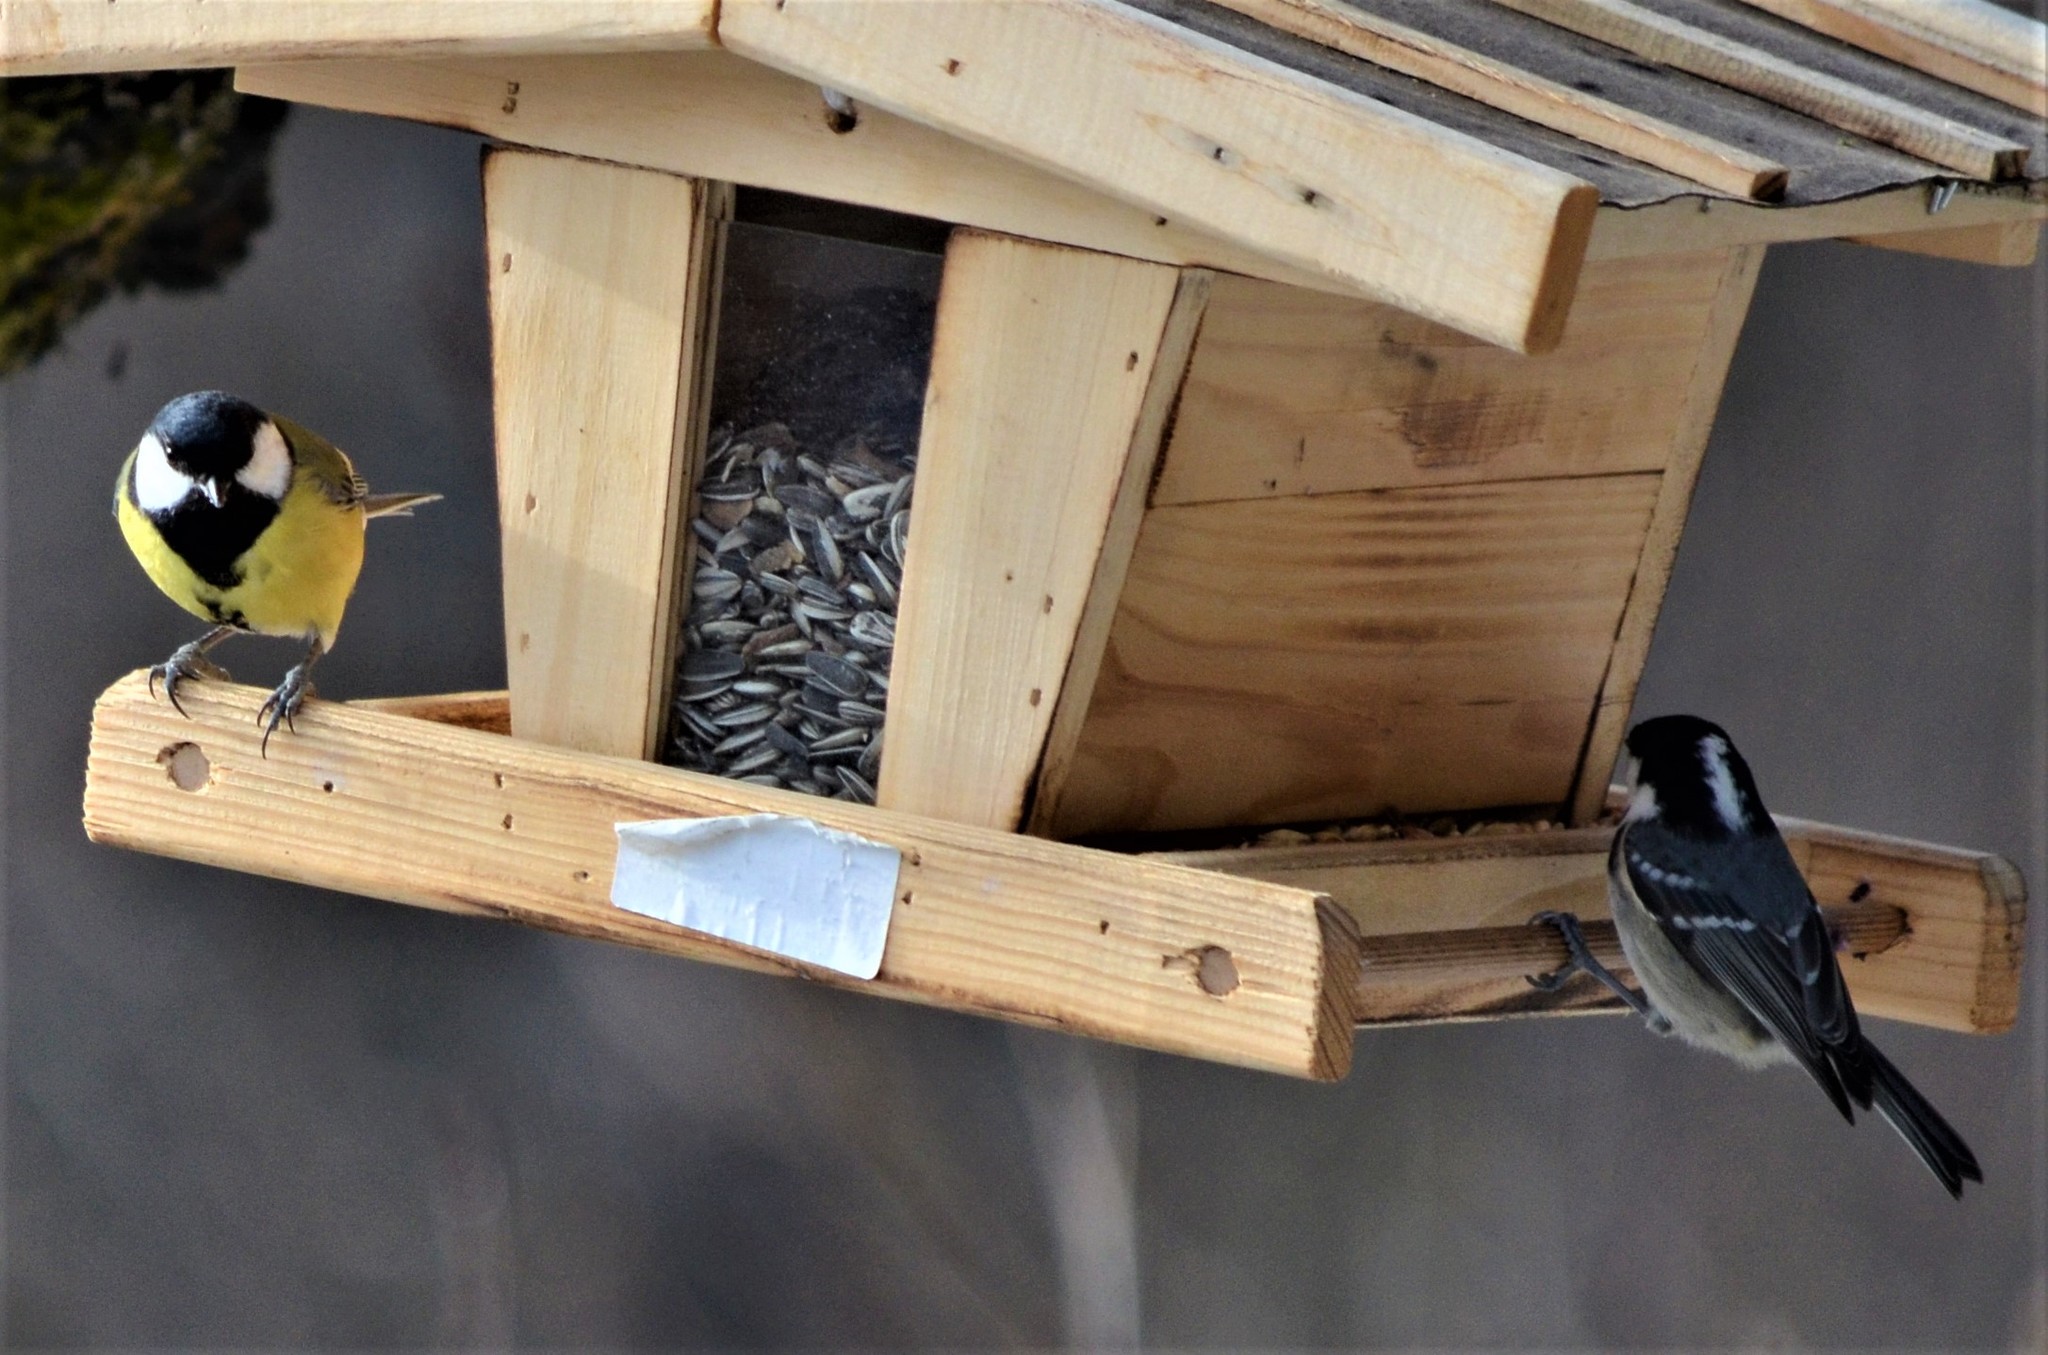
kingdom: Animalia
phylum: Chordata
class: Aves
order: Passeriformes
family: Paridae
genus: Parus
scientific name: Parus major
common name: Great tit
